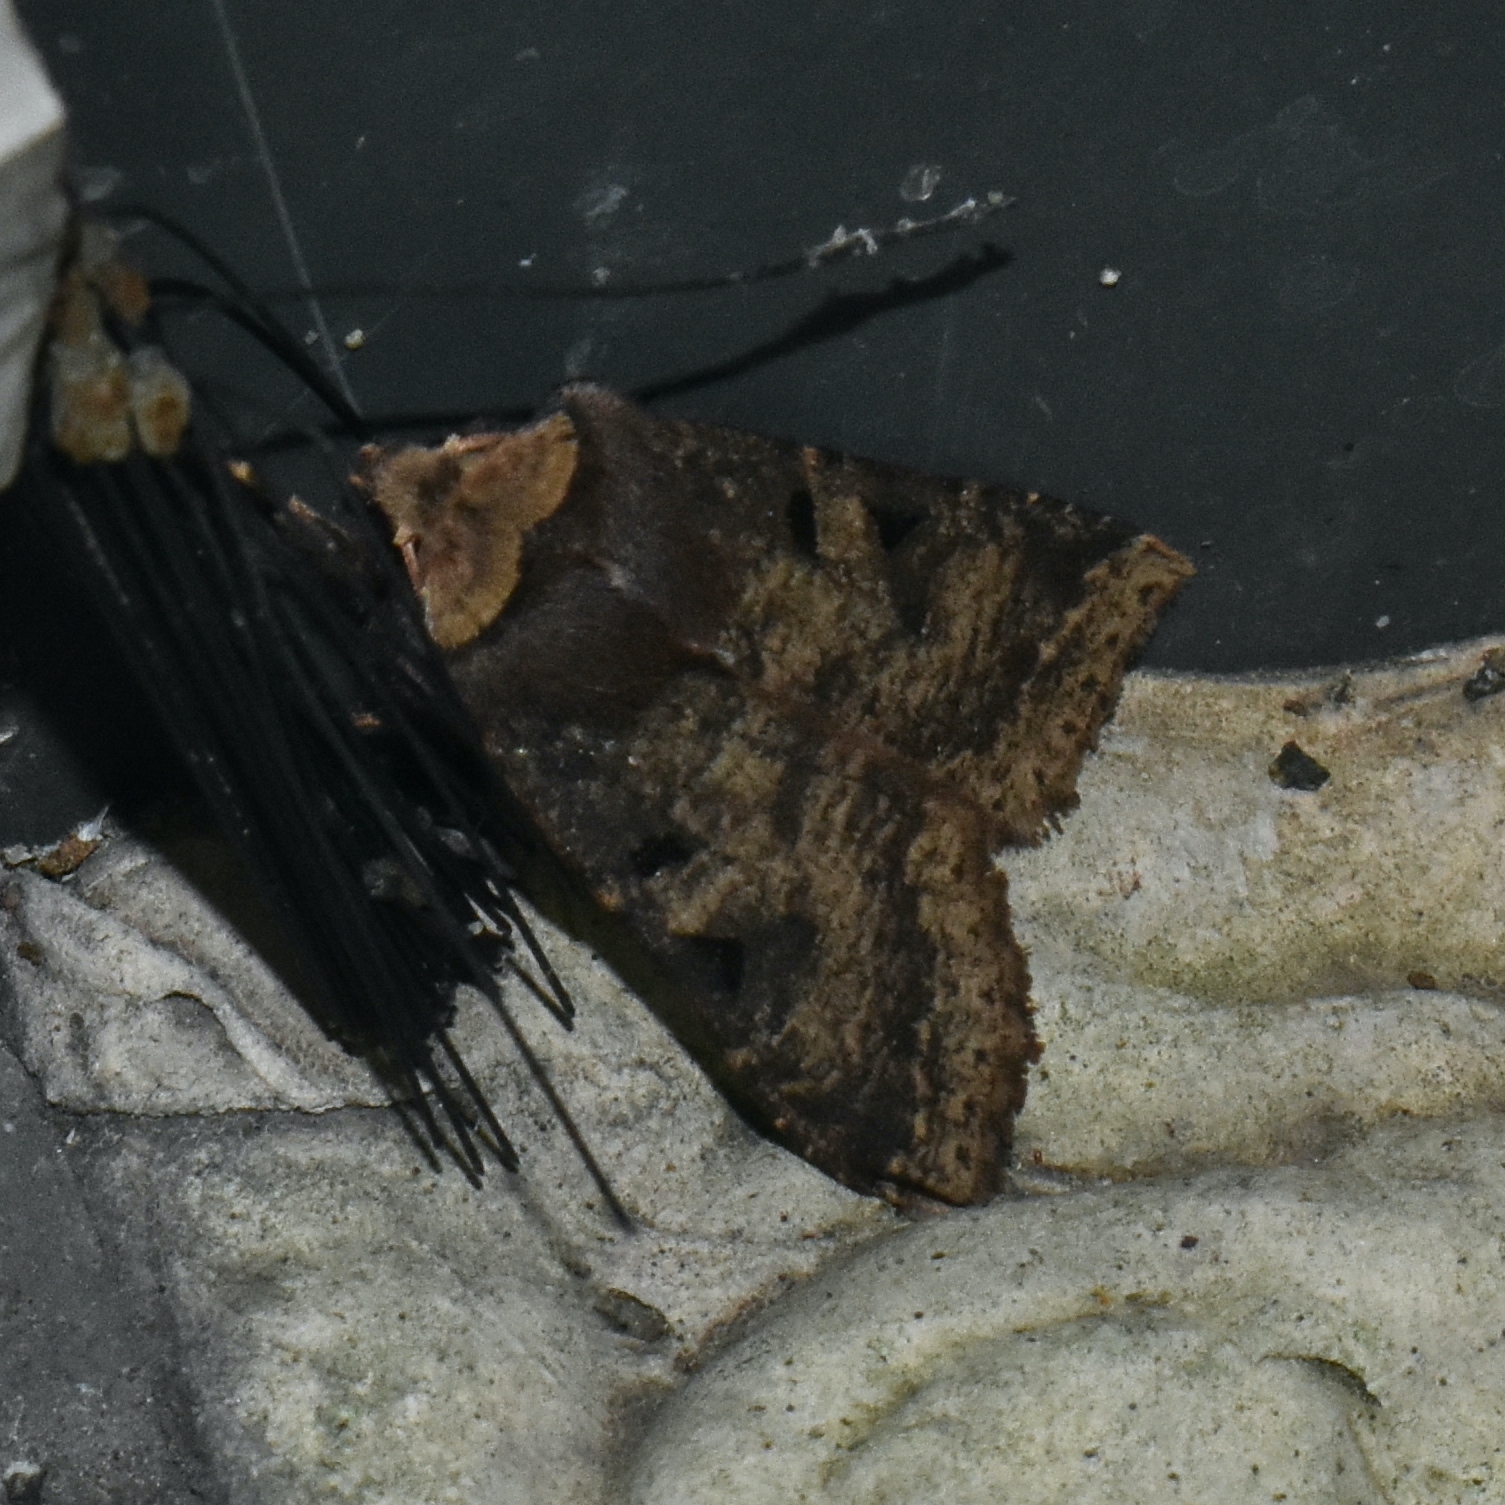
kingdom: Animalia
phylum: Arthropoda
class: Insecta
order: Lepidoptera
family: Noctuidae
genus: Orthosia
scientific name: Orthosia praeses
